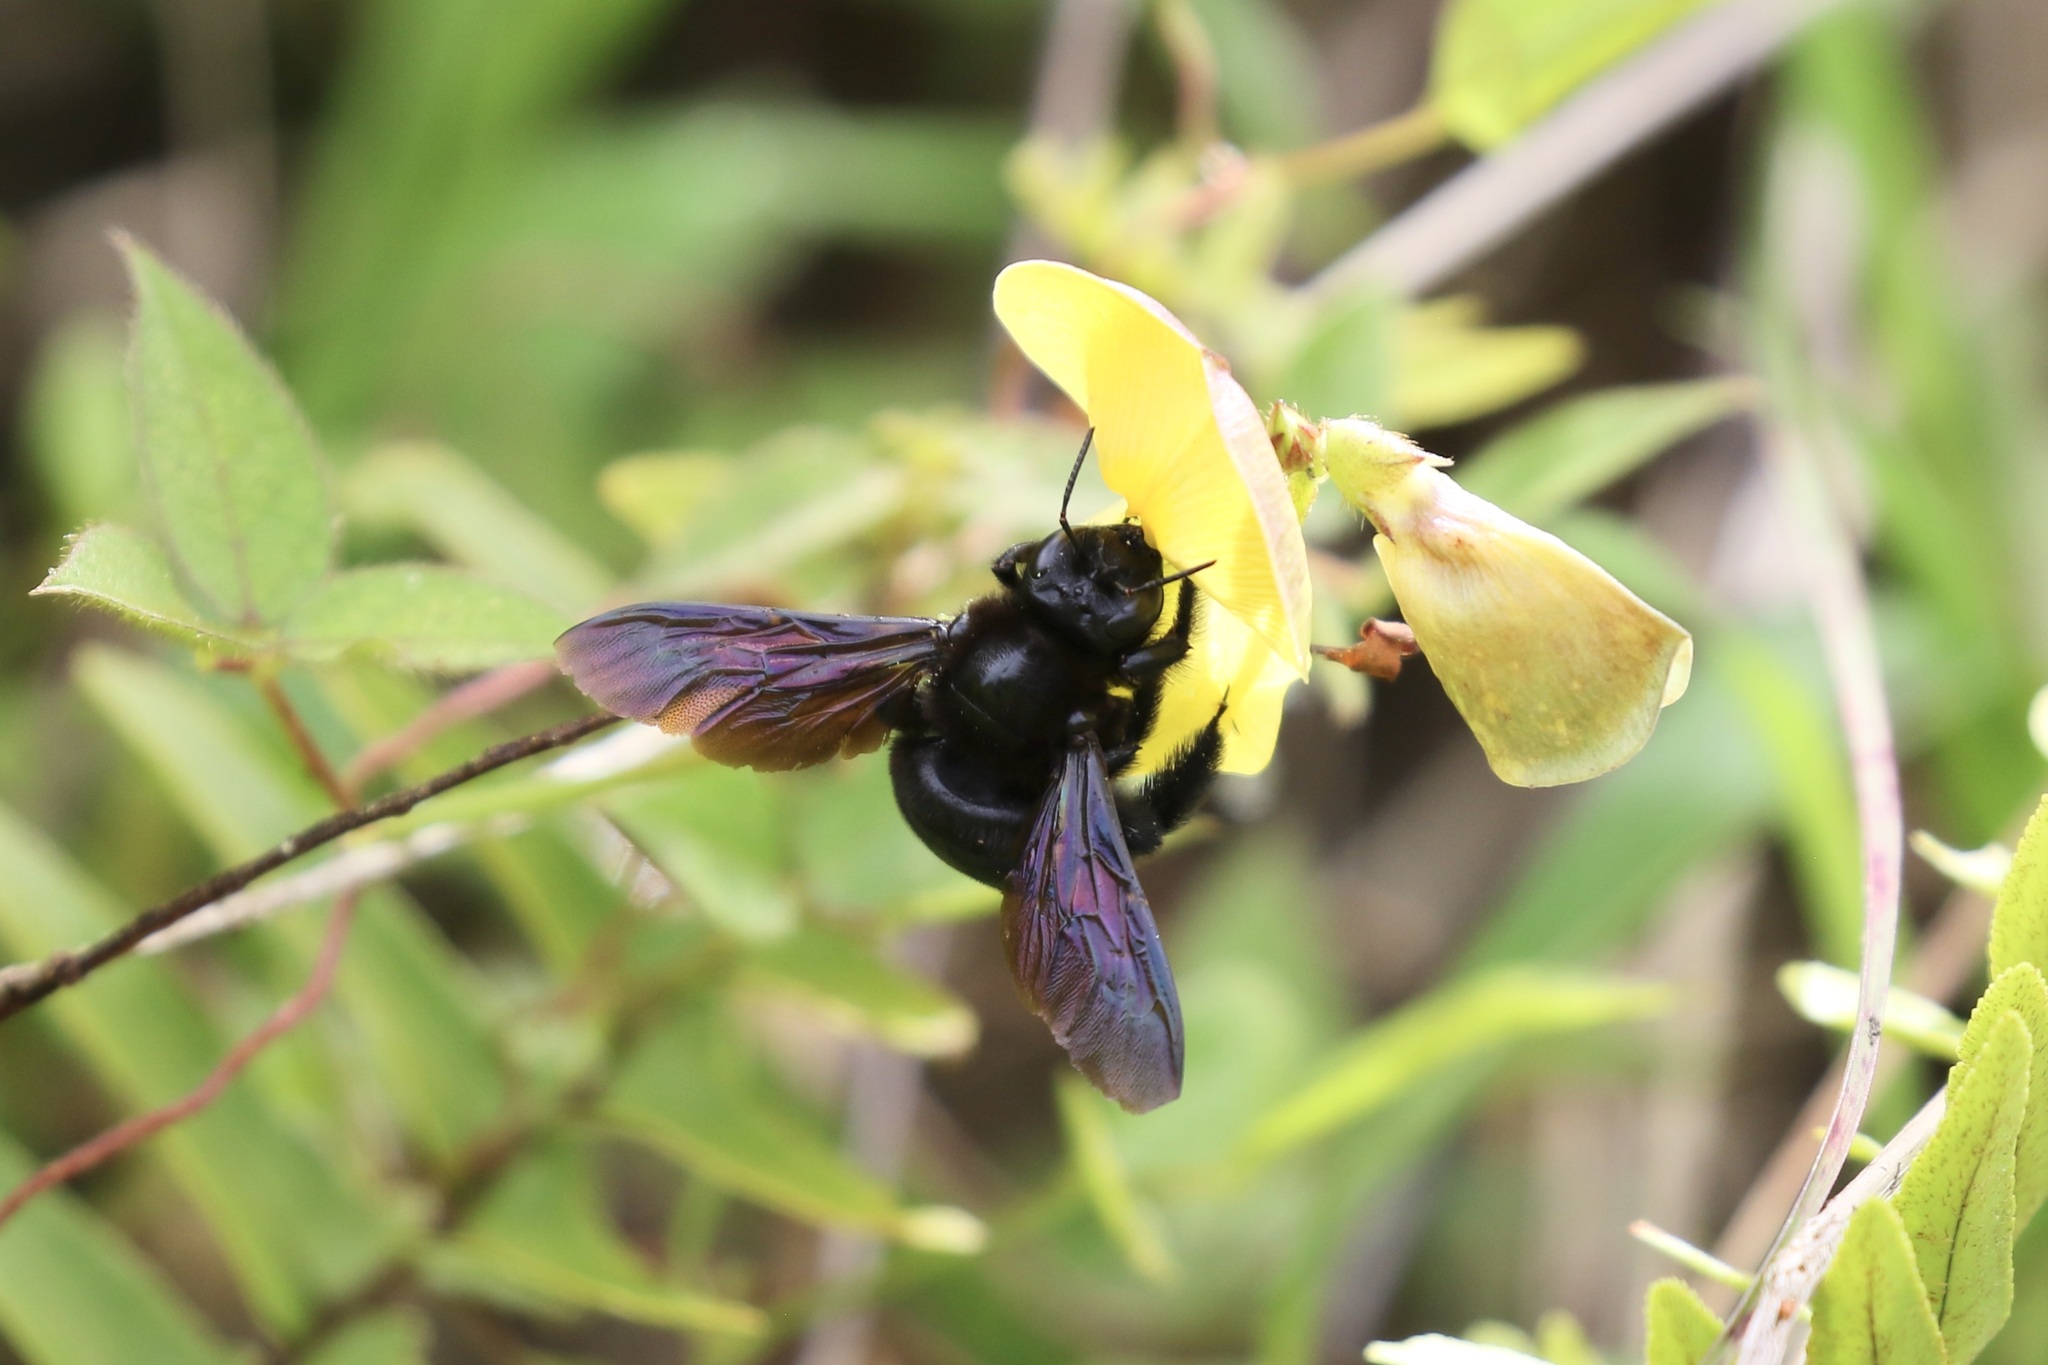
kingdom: Animalia
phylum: Arthropoda
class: Insecta
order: Hymenoptera
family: Apidae
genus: Xylocopa
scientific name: Xylocopa darwini
